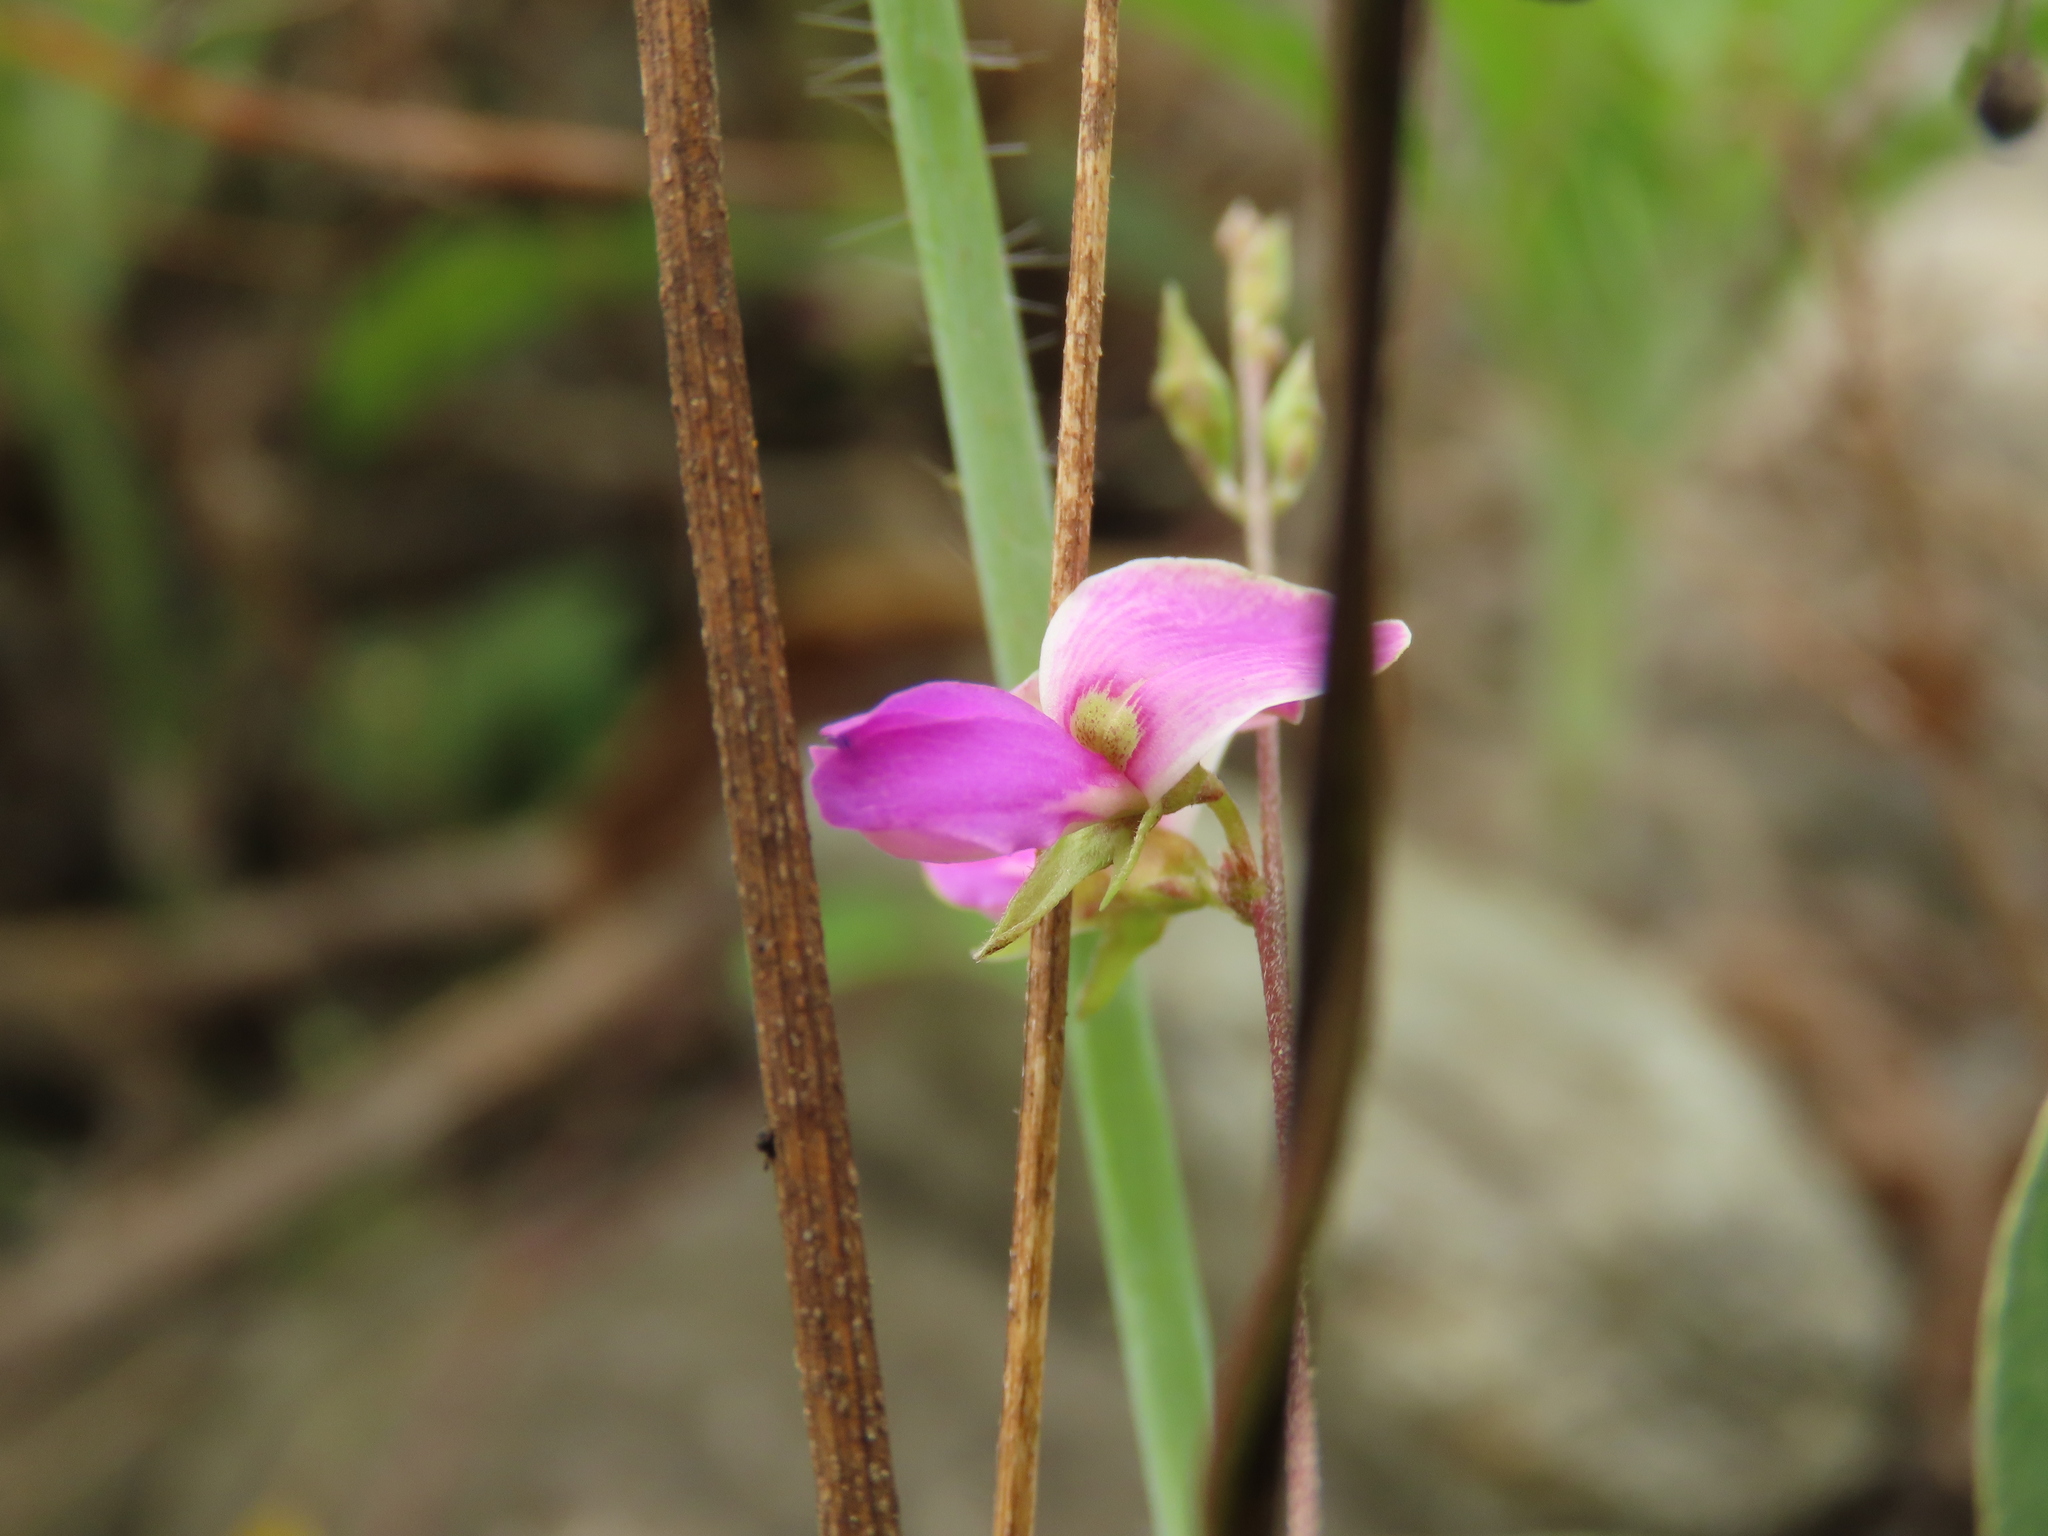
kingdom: Plantae
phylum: Tracheophyta
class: Magnoliopsida
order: Fabales
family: Fabaceae
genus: Galactia
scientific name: Galactia striata
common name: Florida hammock milkpea
